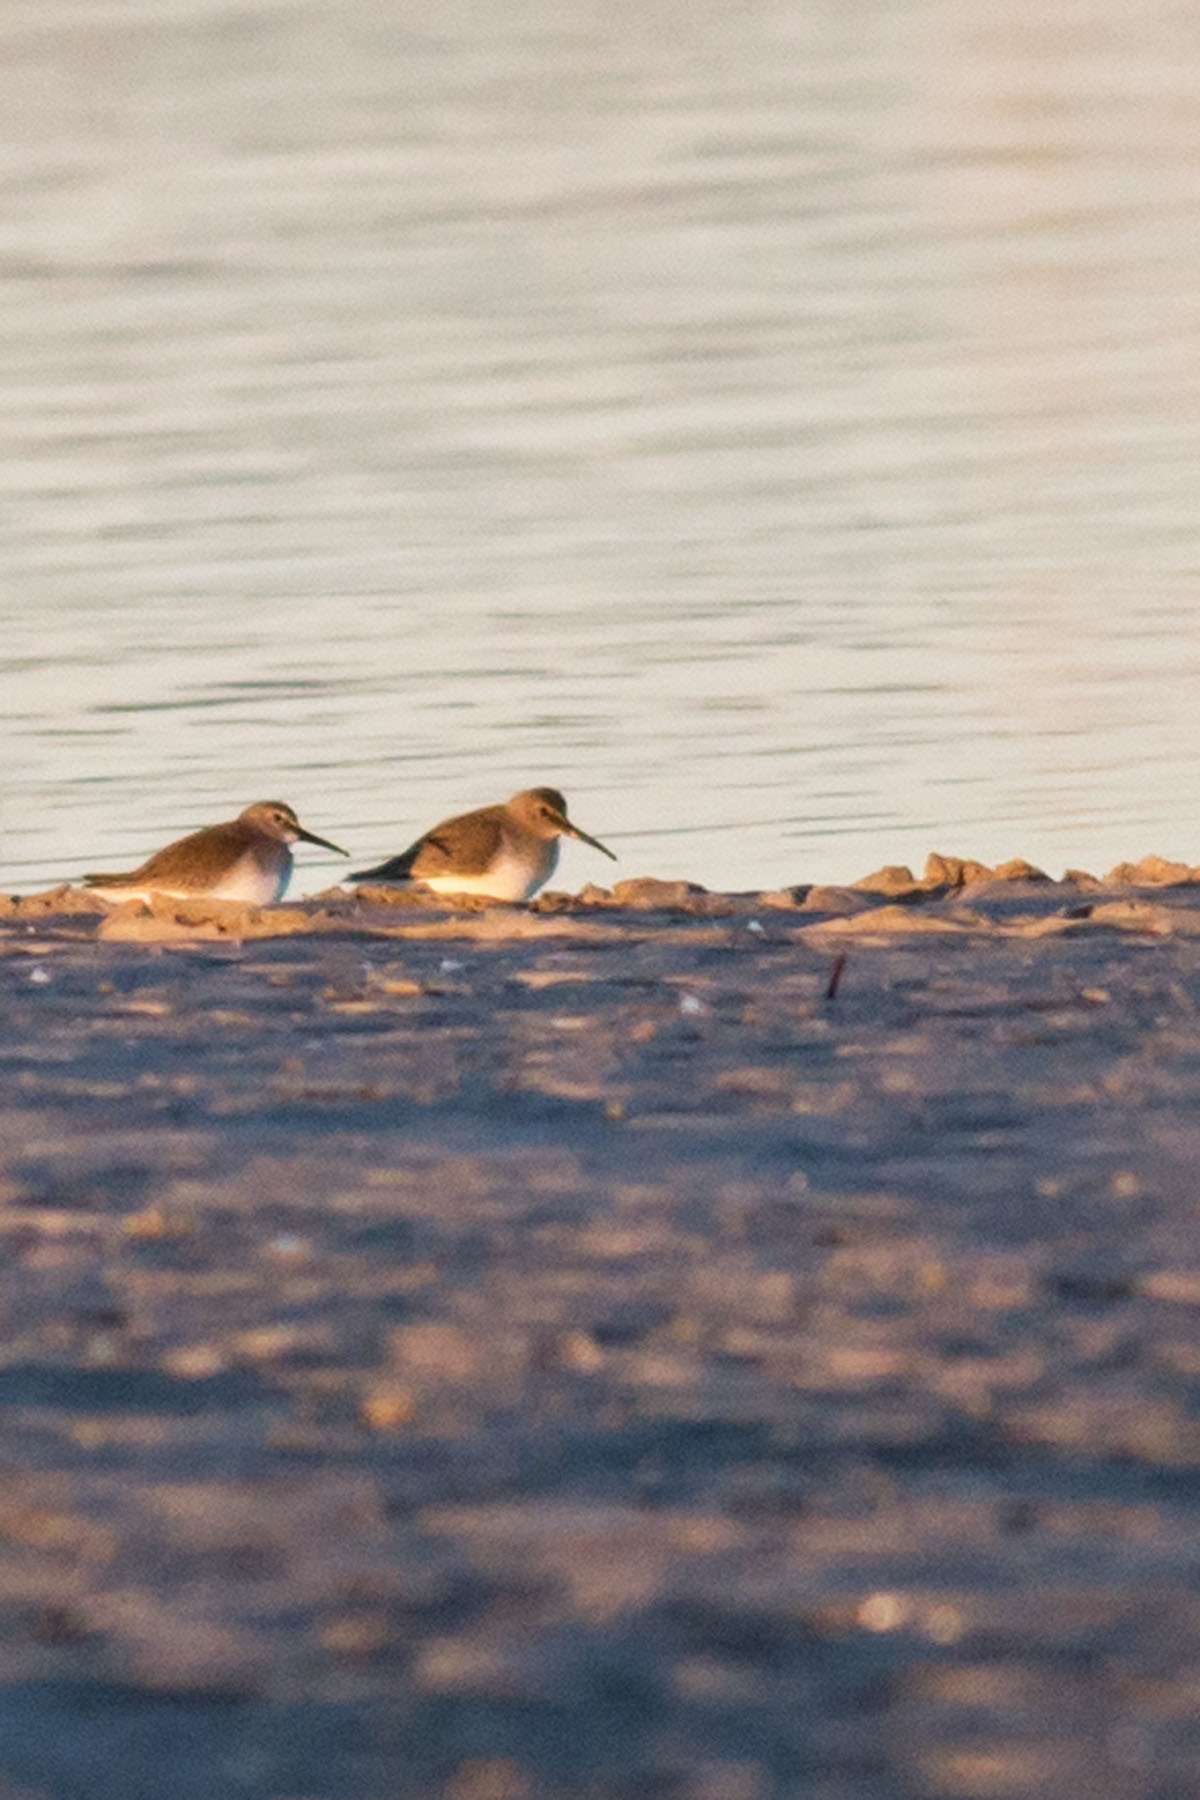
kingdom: Animalia
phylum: Chordata
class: Aves
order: Charadriiformes
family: Scolopacidae
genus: Calidris
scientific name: Calidris alpina
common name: Dunlin
